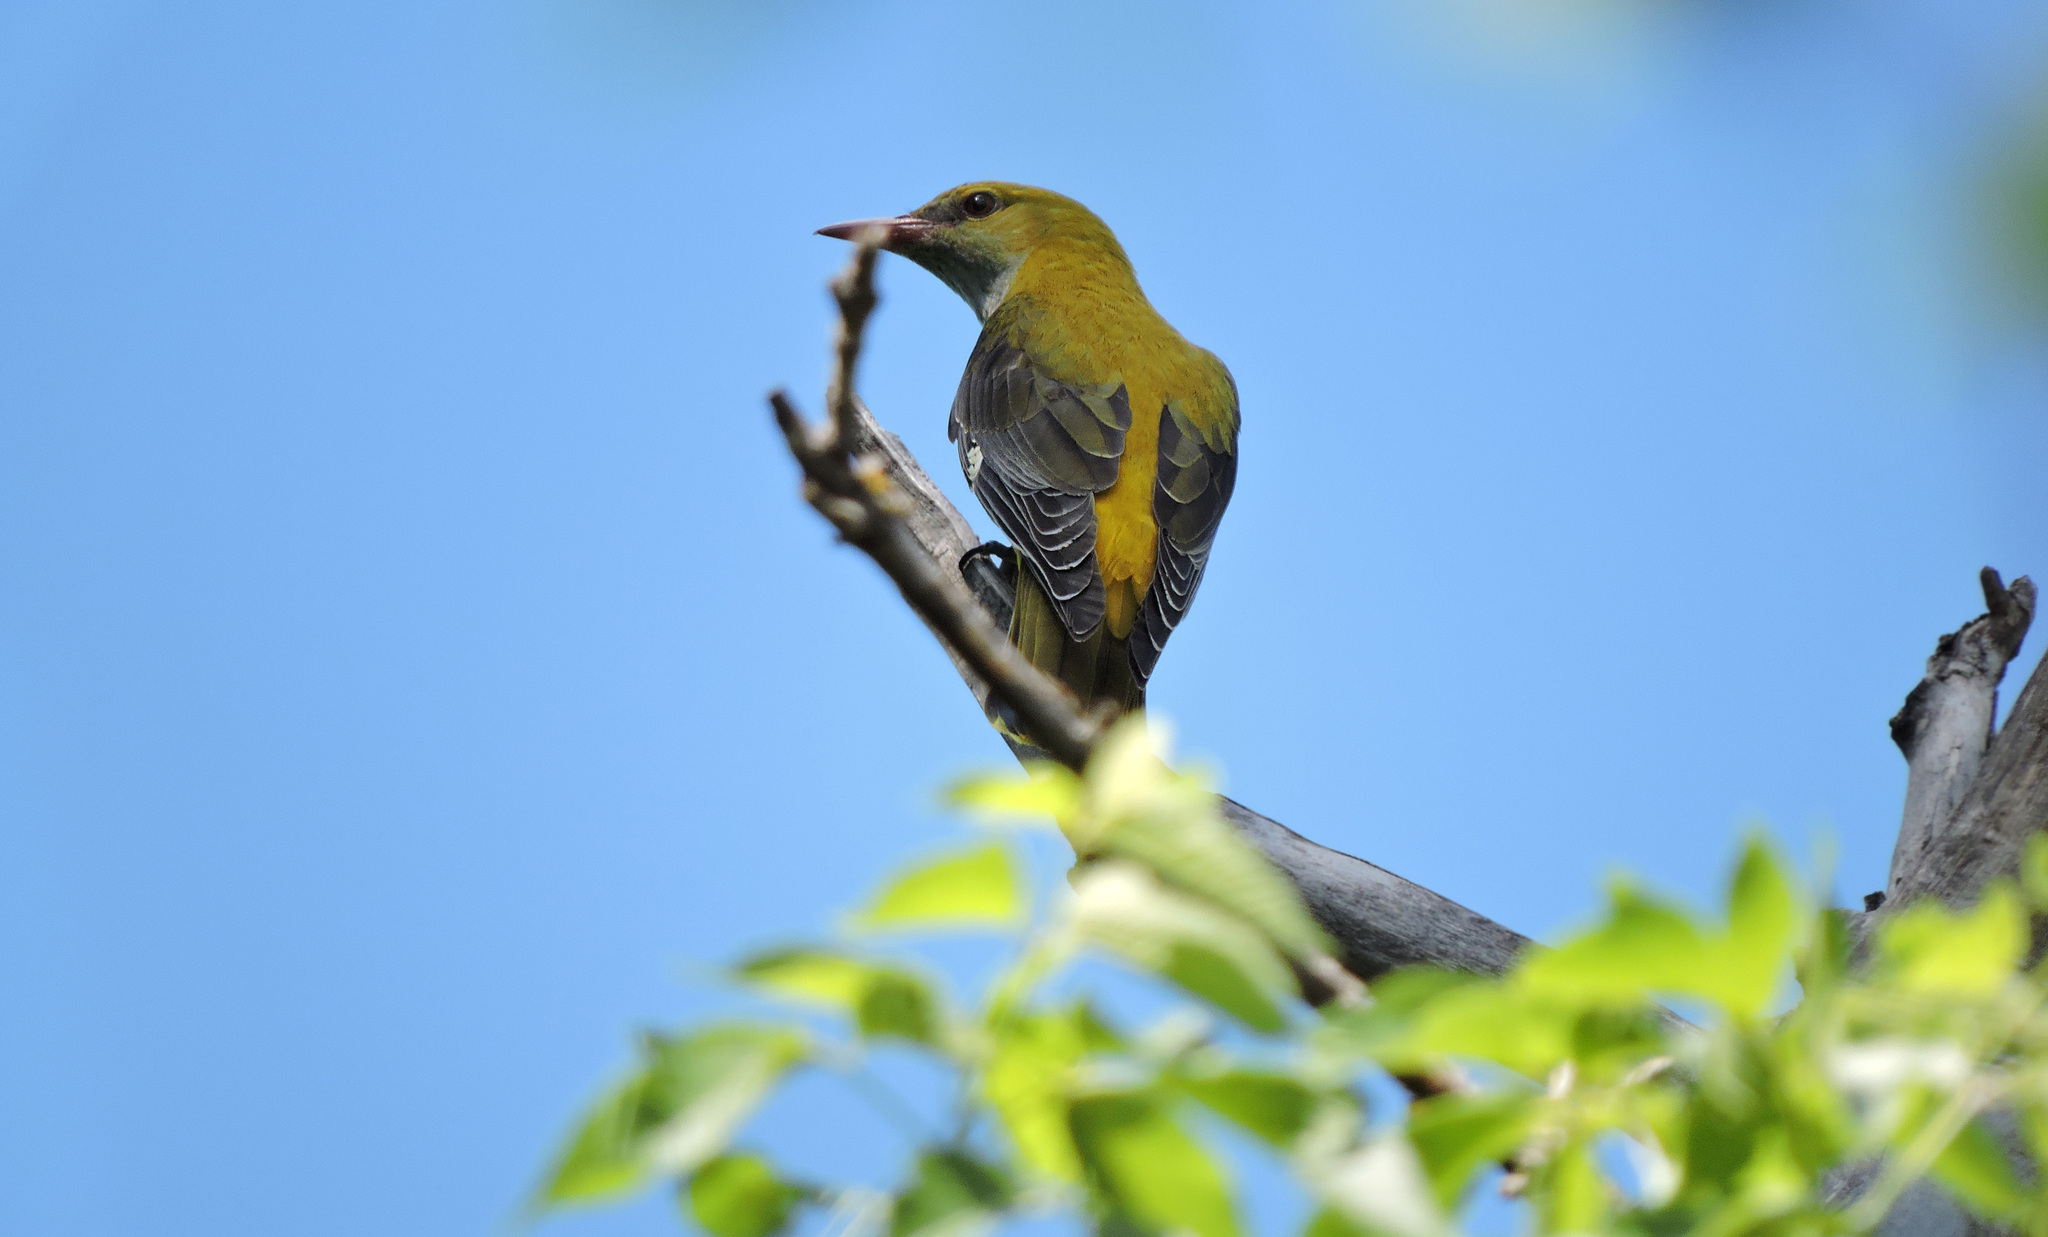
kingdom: Animalia
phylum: Chordata
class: Aves
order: Passeriformes
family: Oriolidae
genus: Oriolus
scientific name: Oriolus oriolus
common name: Eurasian golden oriole
